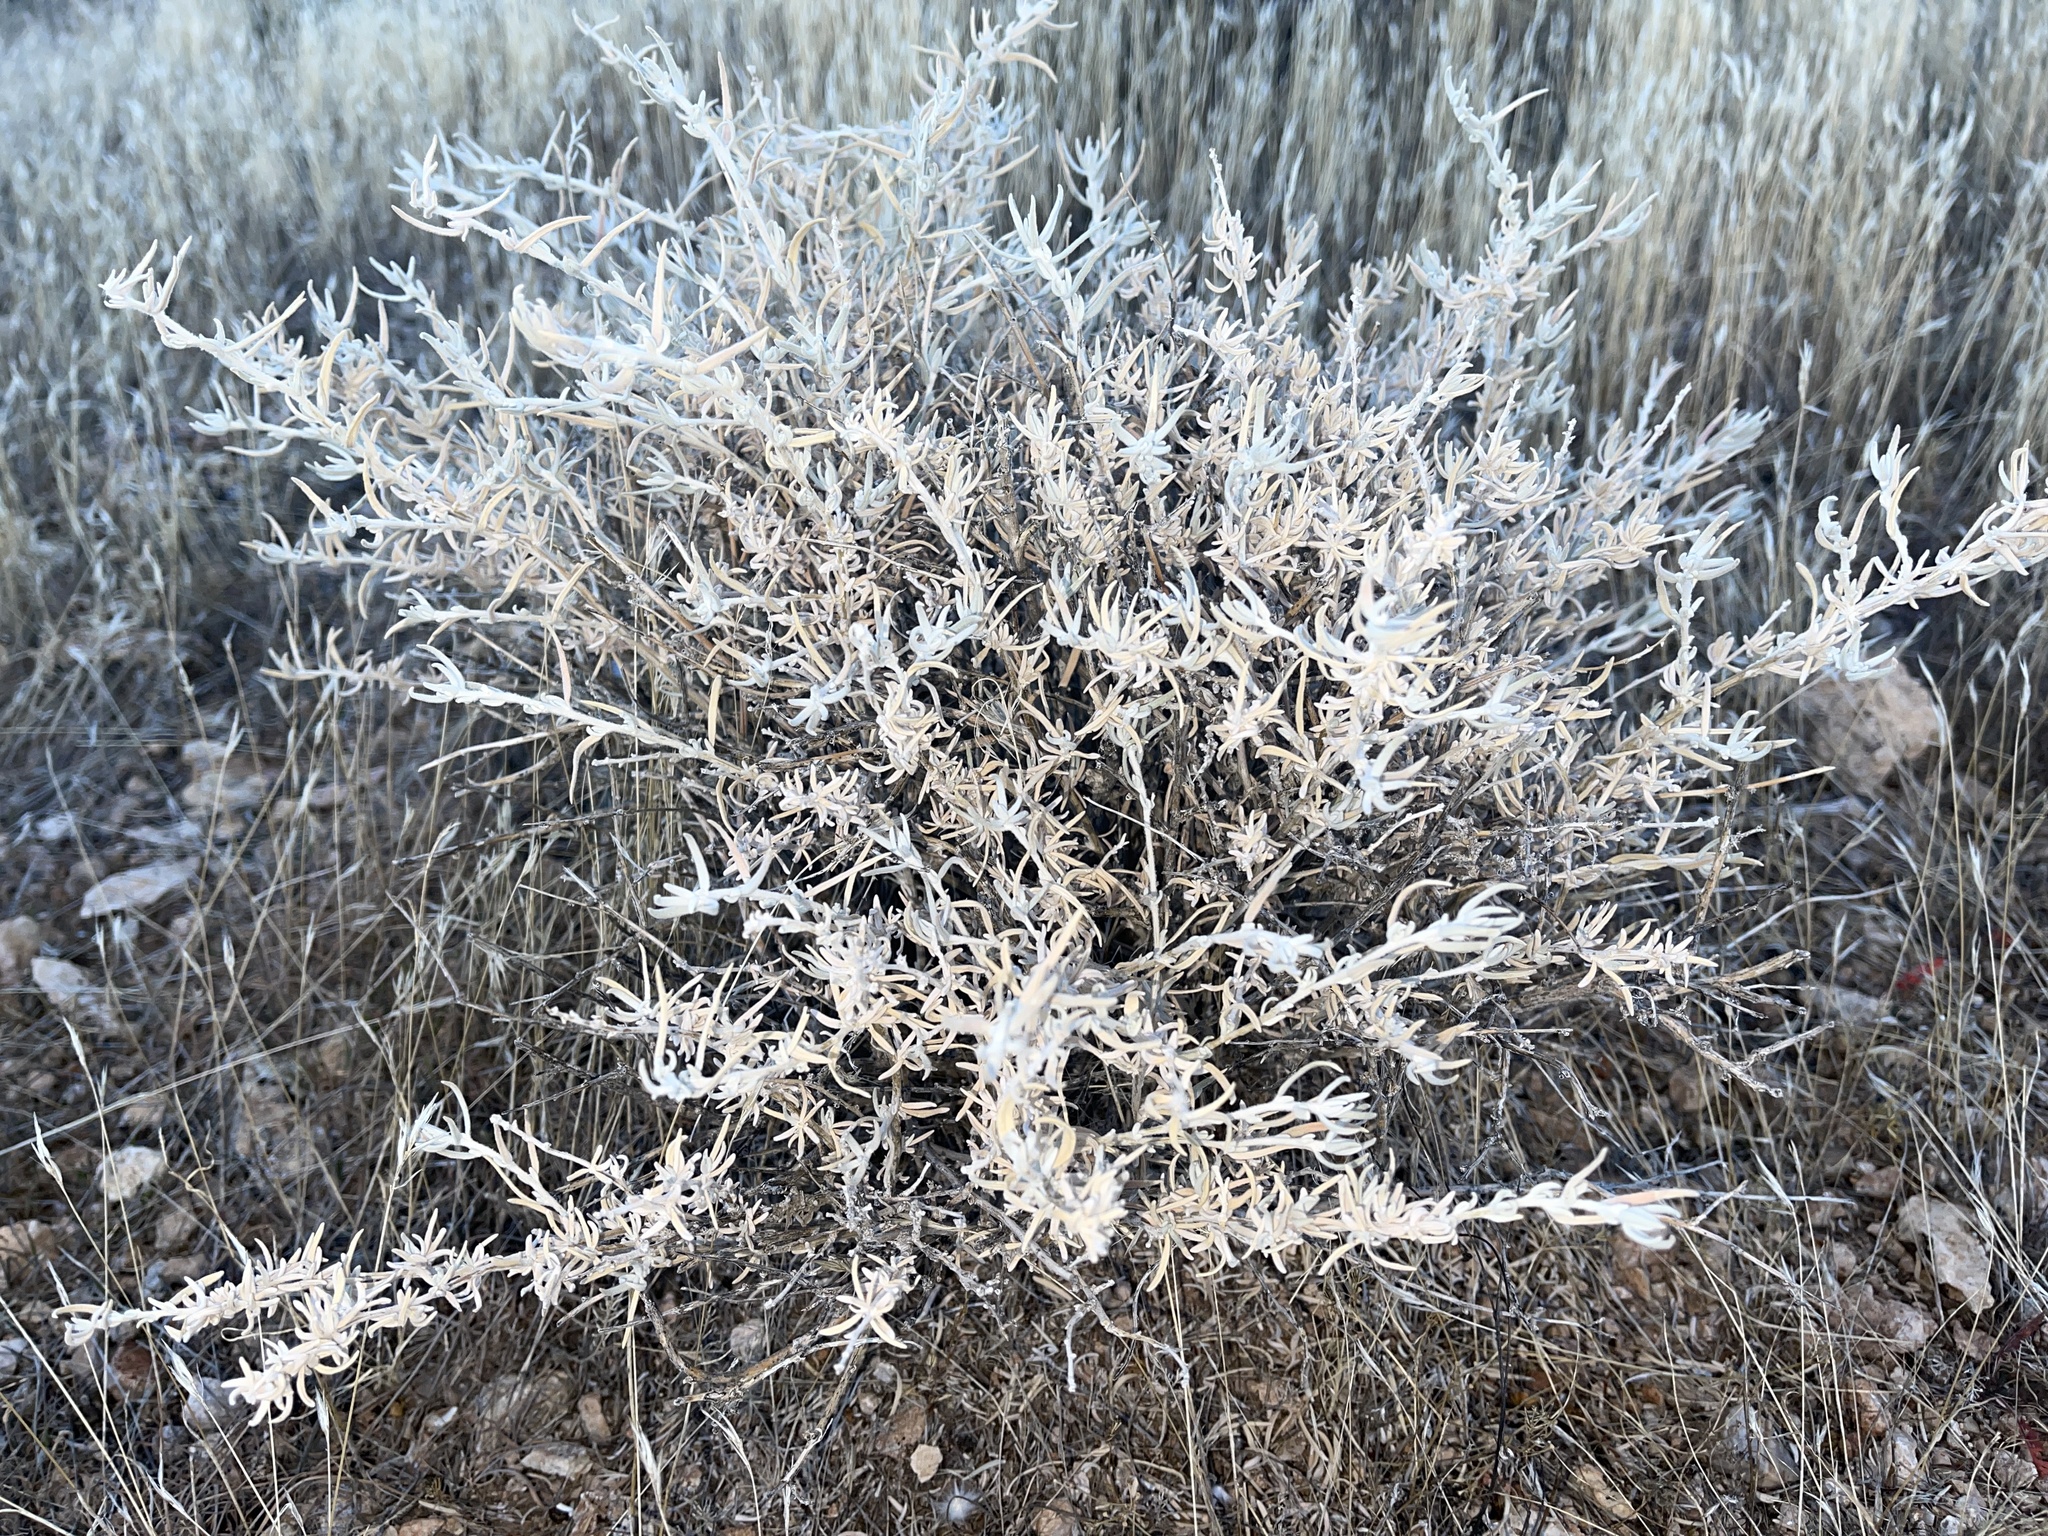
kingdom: Plantae
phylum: Tracheophyta
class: Magnoliopsida
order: Caryophyllales
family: Amaranthaceae
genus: Krascheninnikovia
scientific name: Krascheninnikovia lanata
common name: Winterfat
